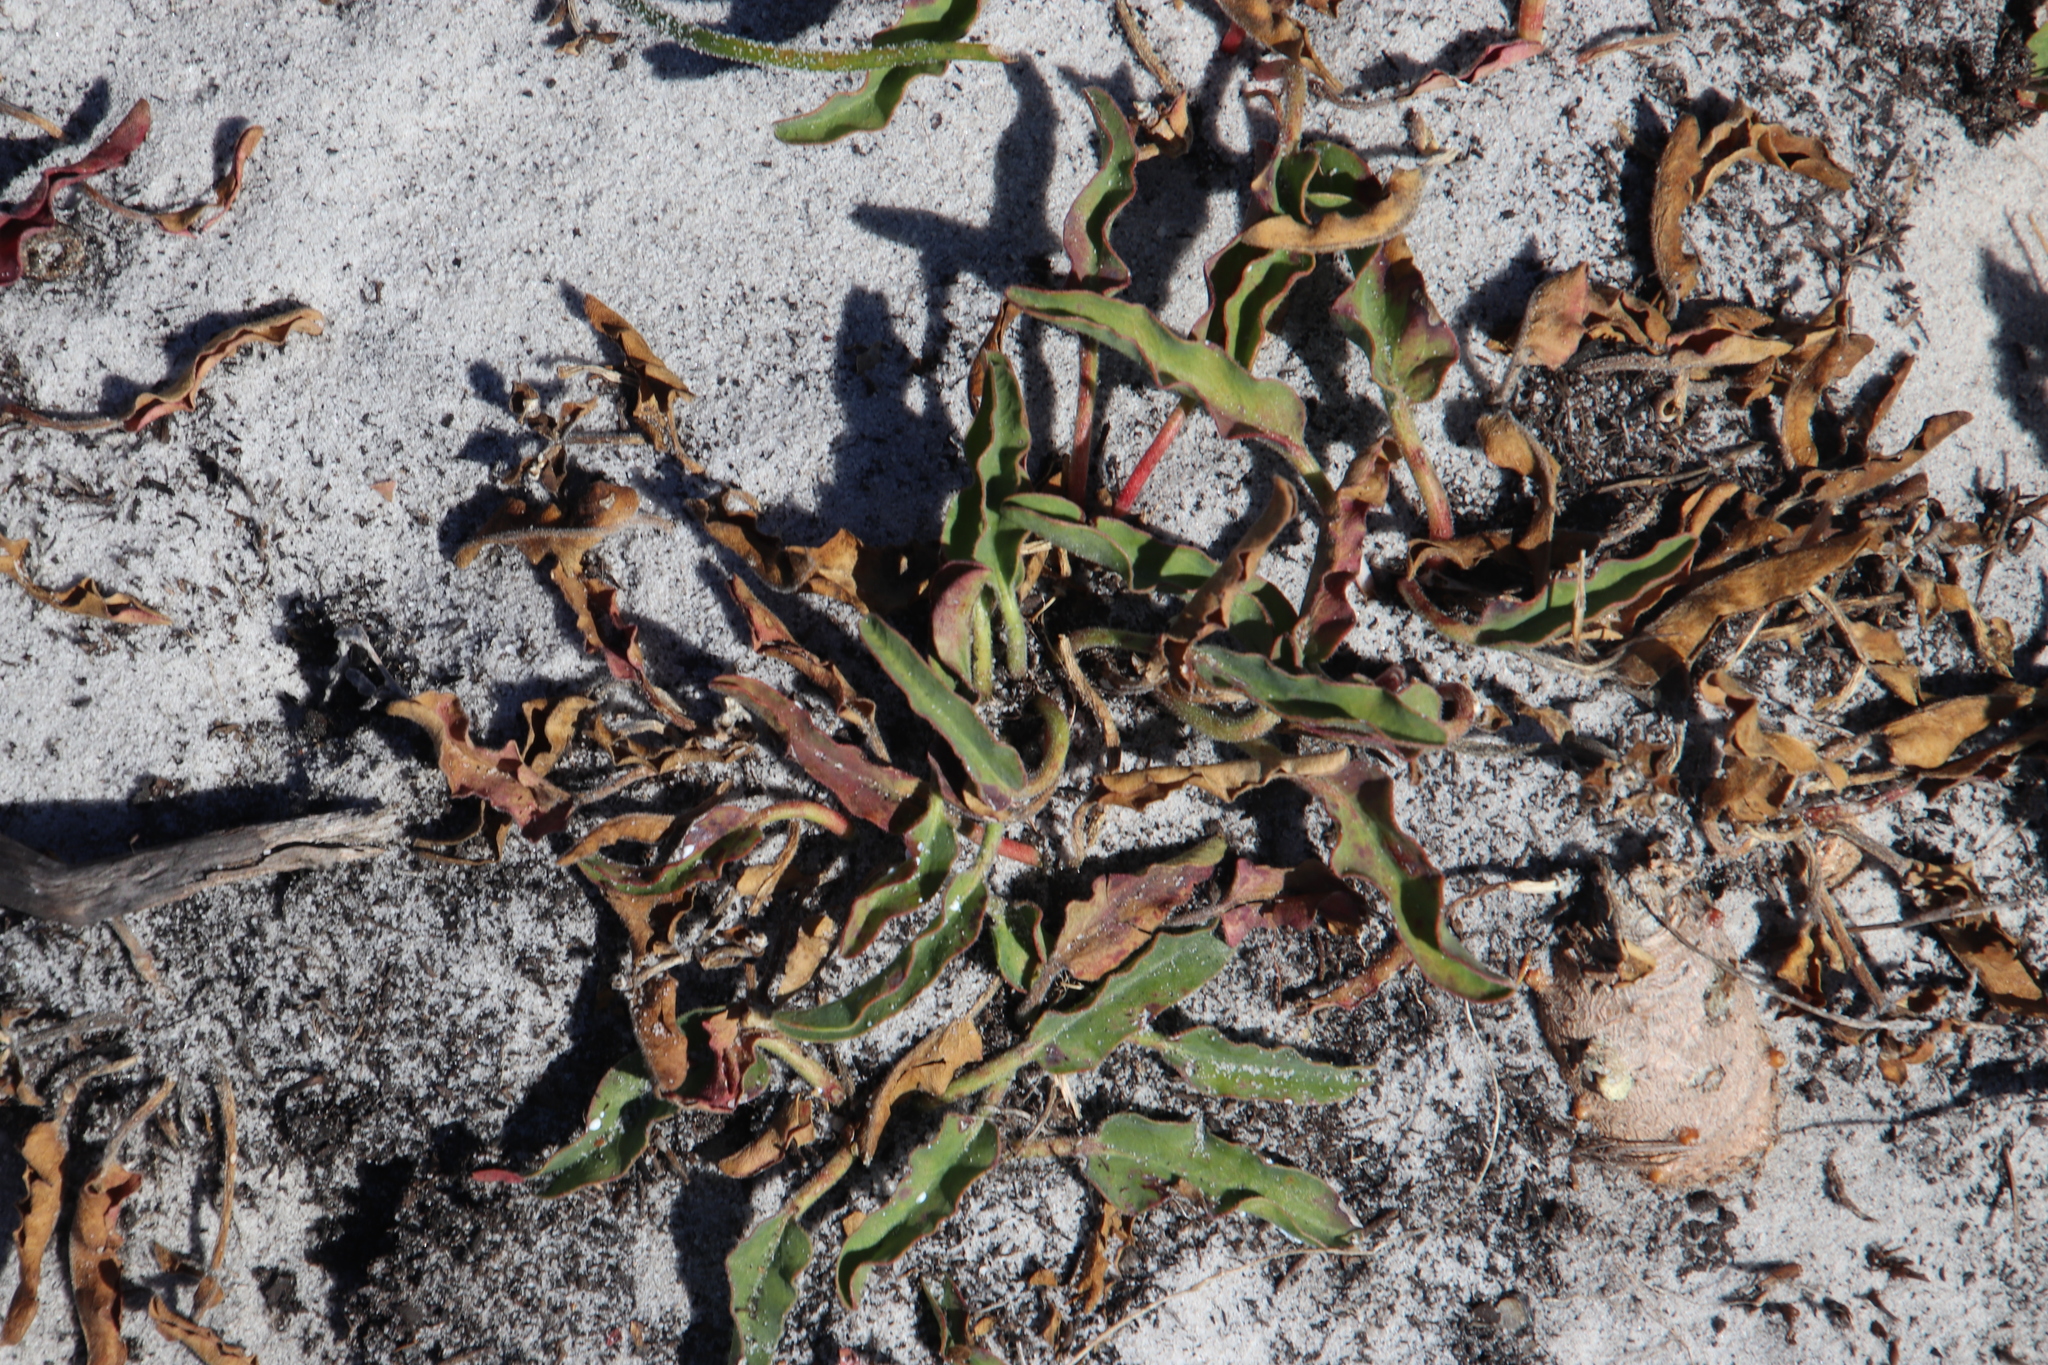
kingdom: Plantae
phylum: Tracheophyta
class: Magnoliopsida
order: Malpighiales
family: Euphorbiaceae
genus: Euphorbia
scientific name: Euphorbia tuberosa
